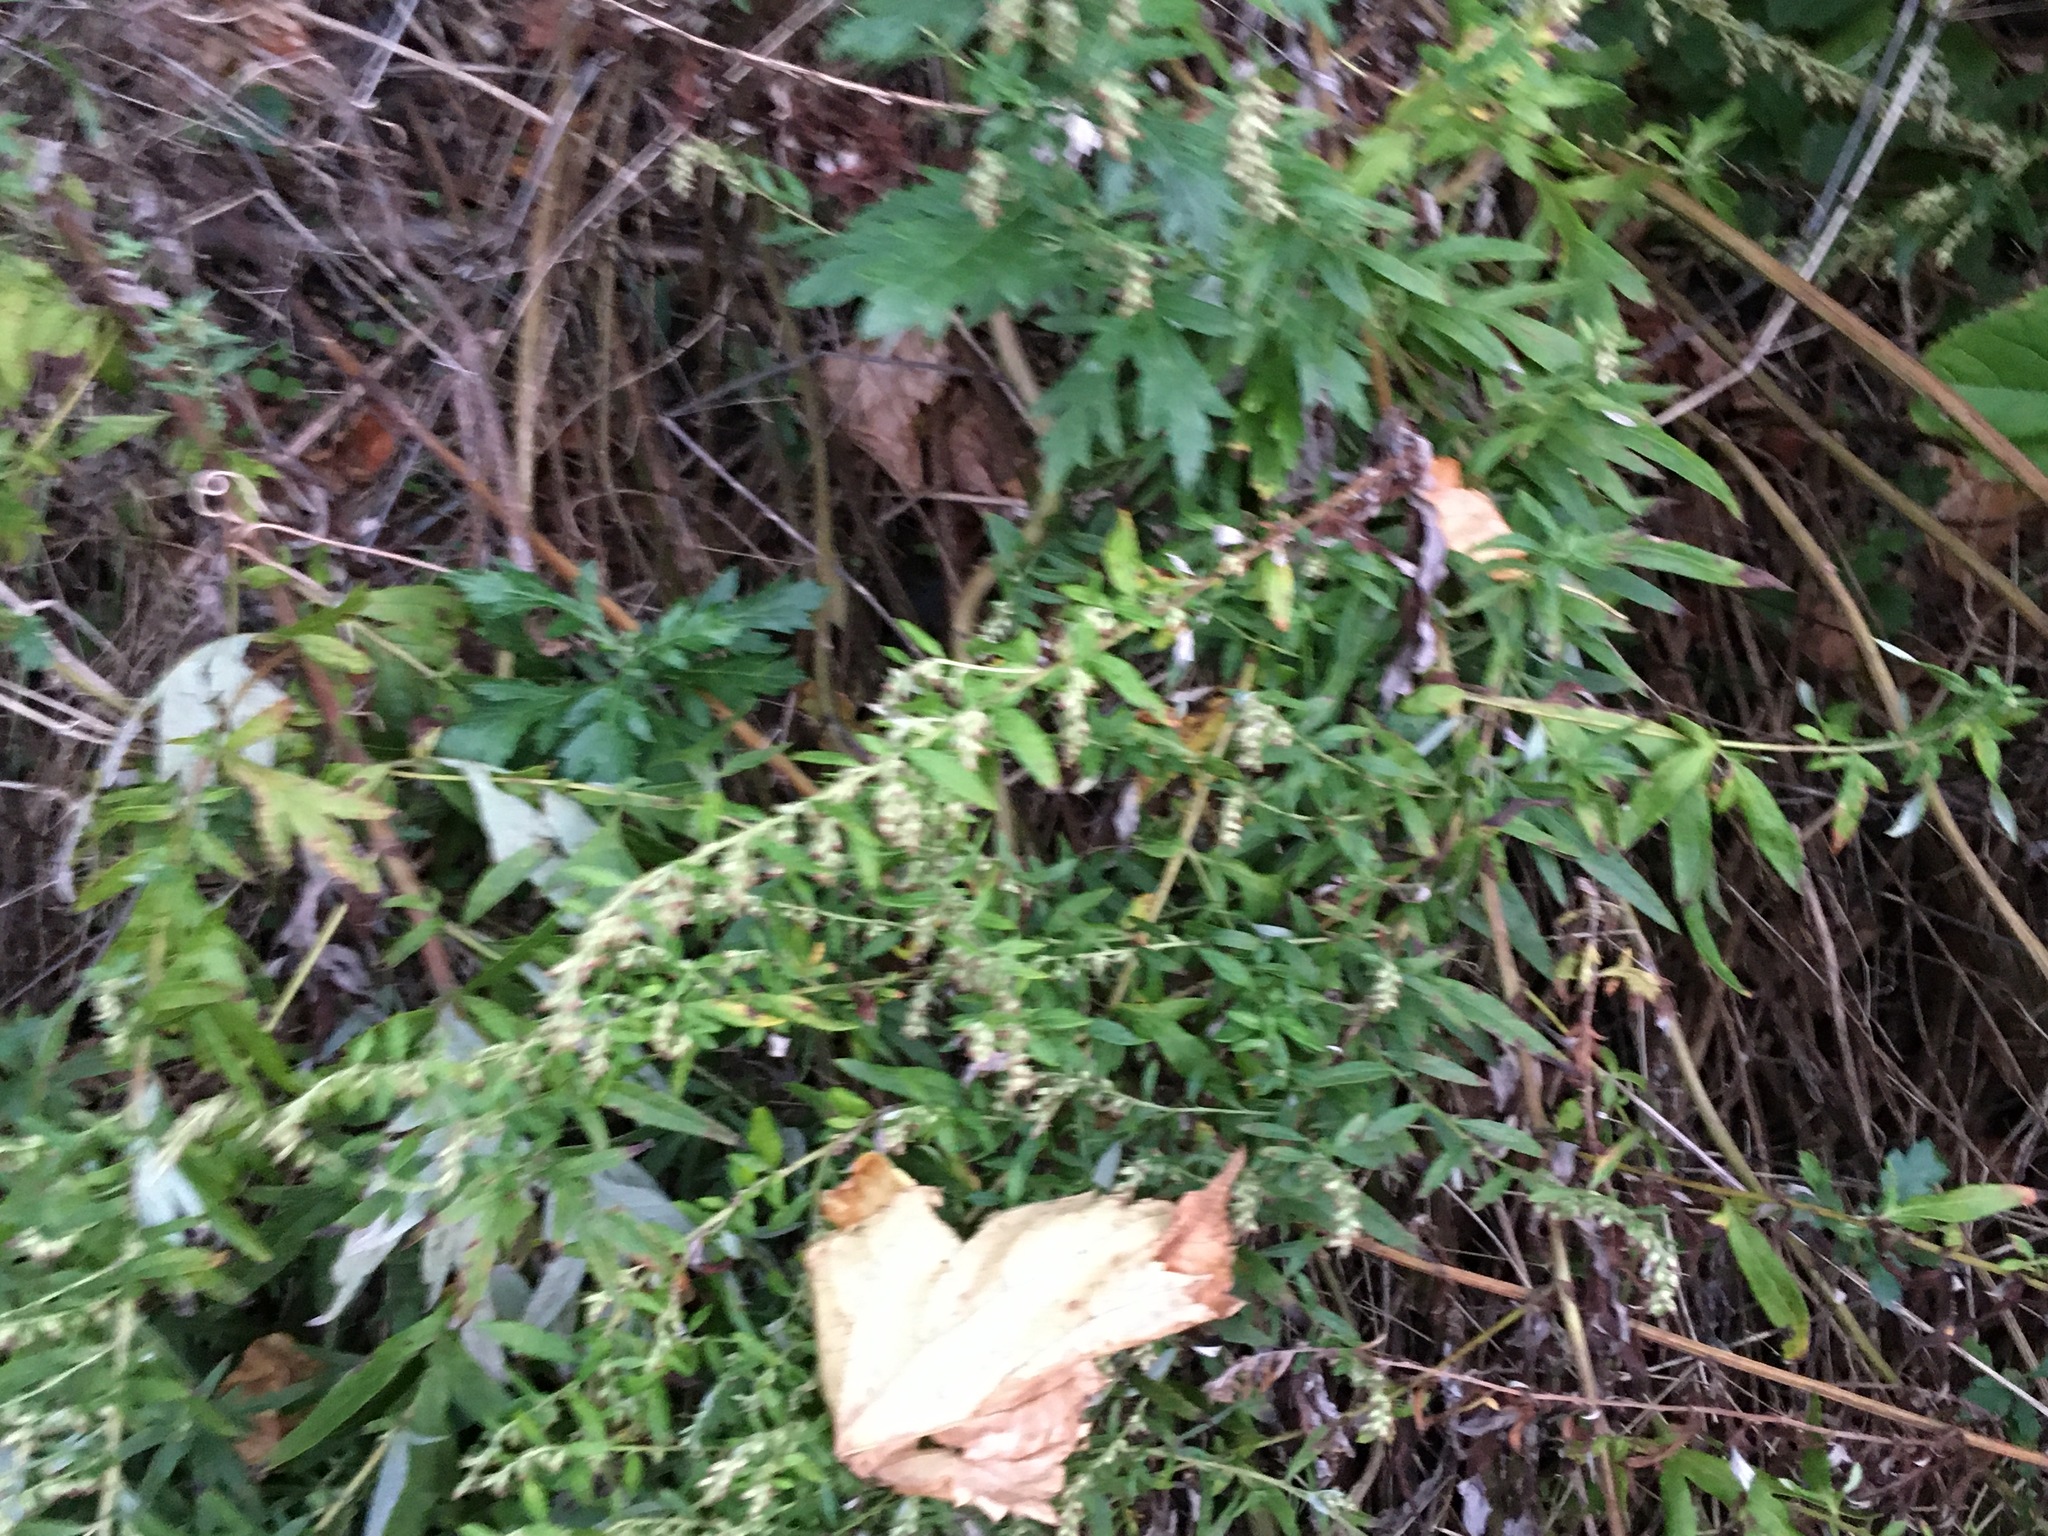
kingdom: Plantae
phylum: Tracheophyta
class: Magnoliopsida
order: Asterales
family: Asteraceae
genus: Artemisia
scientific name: Artemisia vulgaris
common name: Mugwort
